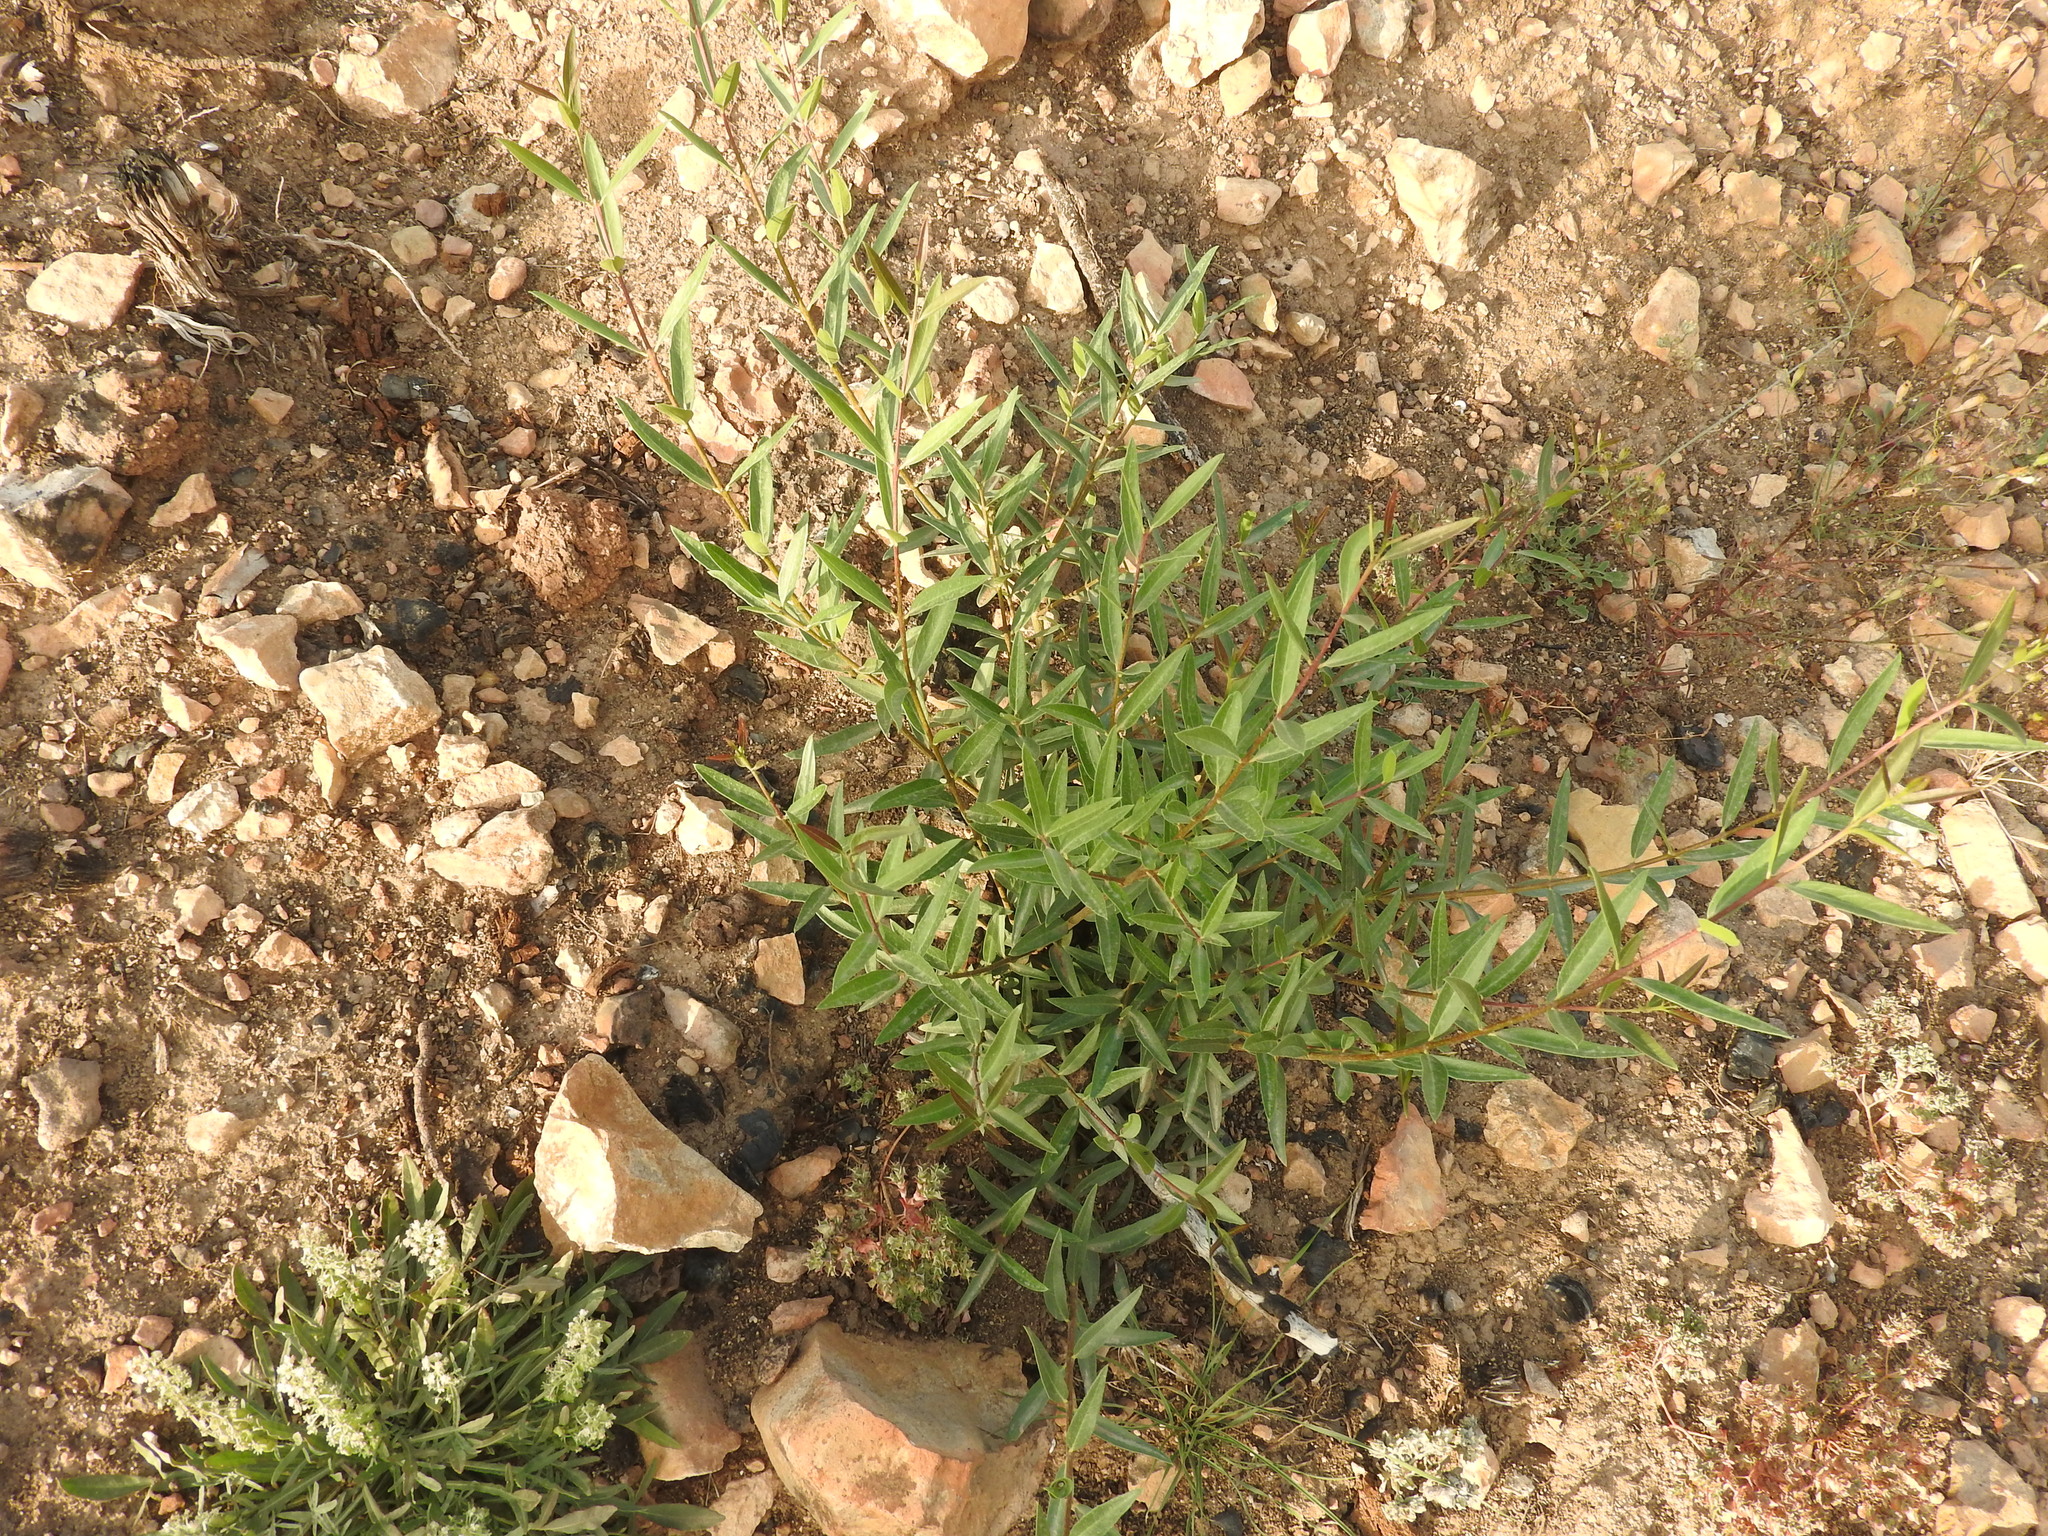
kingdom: Plantae
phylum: Tracheophyta
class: Magnoliopsida
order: Lamiales
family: Oleaceae
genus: Phillyrea
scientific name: Phillyrea angustifolia
